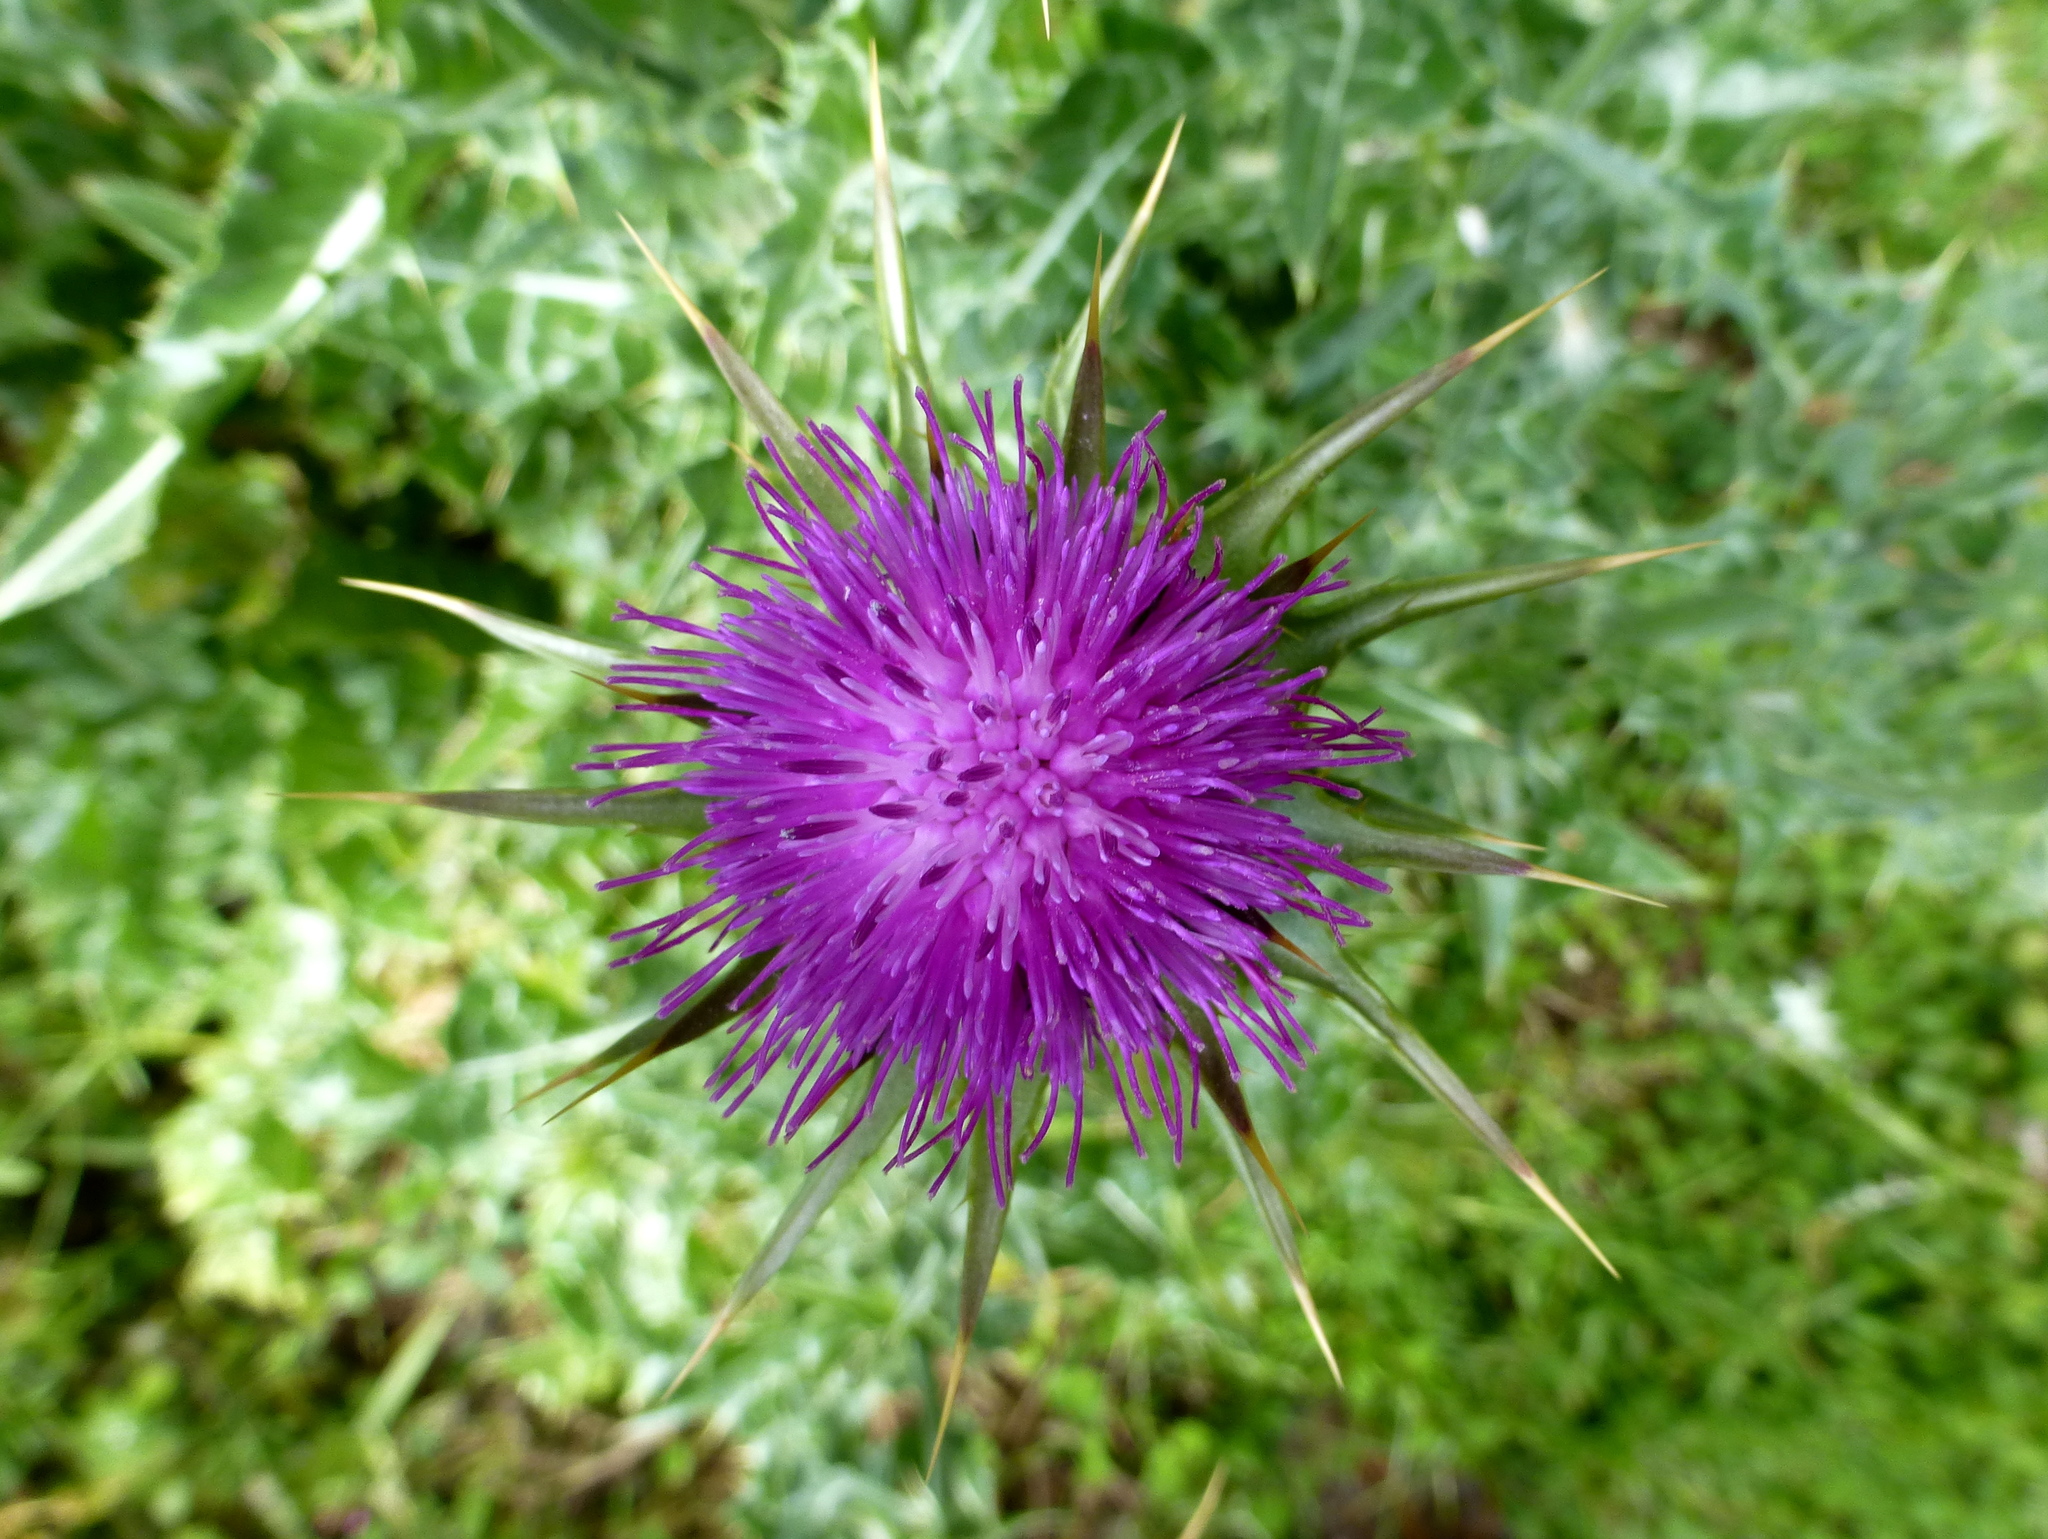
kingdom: Plantae
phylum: Tracheophyta
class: Magnoliopsida
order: Asterales
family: Asteraceae
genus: Silybum
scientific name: Silybum marianum
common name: Milk thistle
